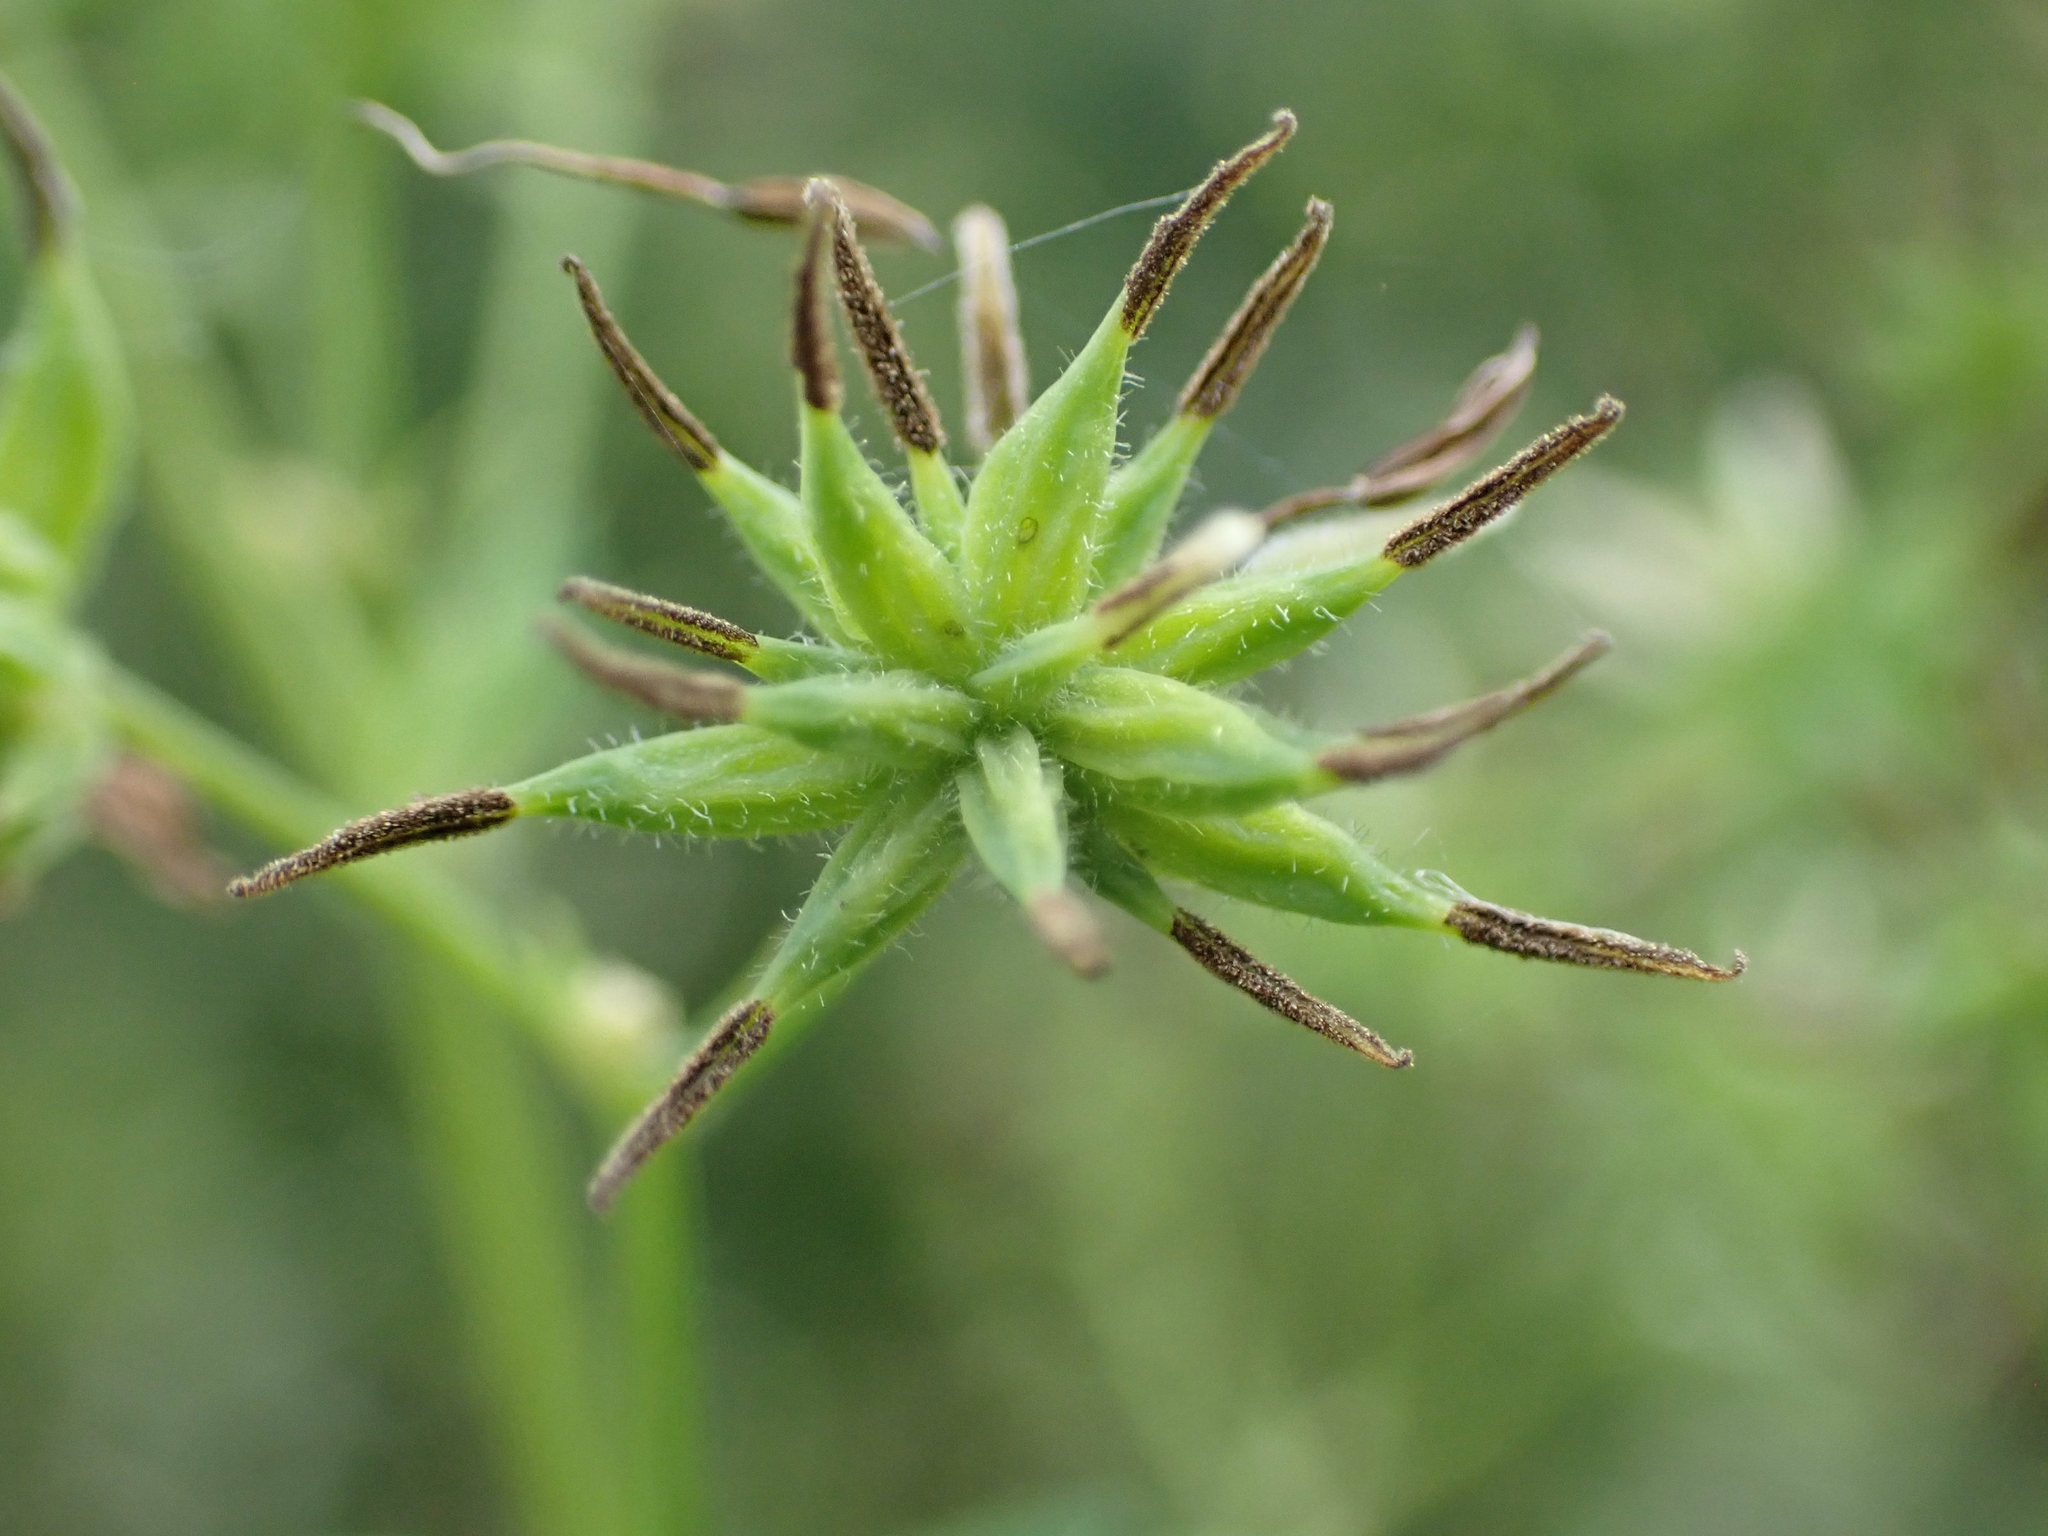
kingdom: Plantae
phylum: Tracheophyta
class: Magnoliopsida
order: Ranunculales
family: Ranunculaceae
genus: Thalictrum
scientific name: Thalictrum dasycarpum
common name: Purple meadow-rue
